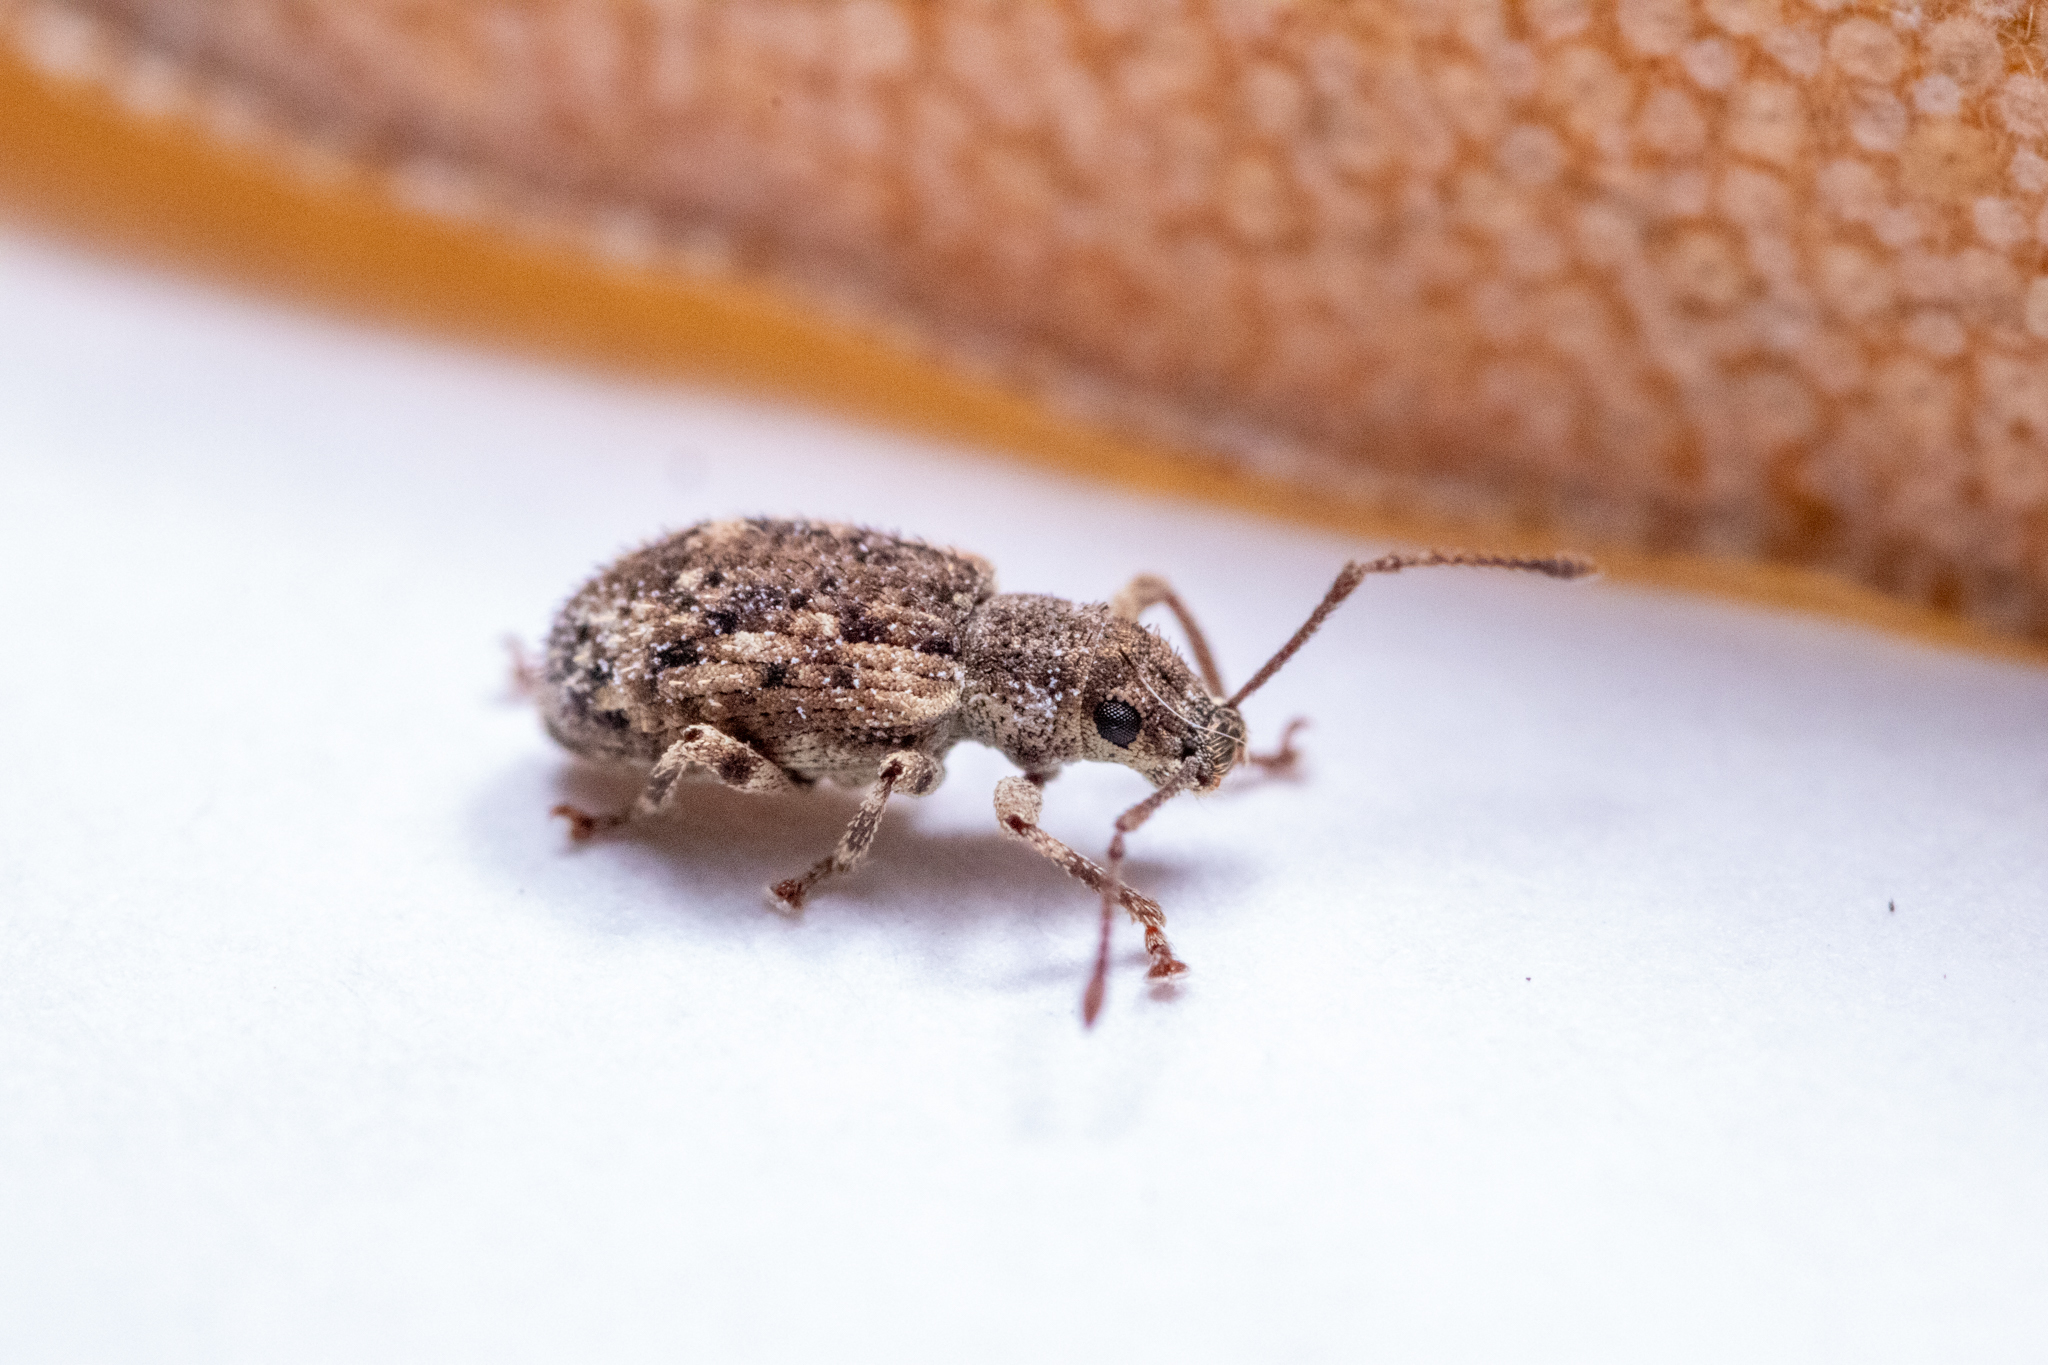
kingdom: Animalia
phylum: Arthropoda
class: Insecta
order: Coleoptera
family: Curculionidae
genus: Pseudoedophrys
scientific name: Pseudoedophrys hilleri
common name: Weevil
